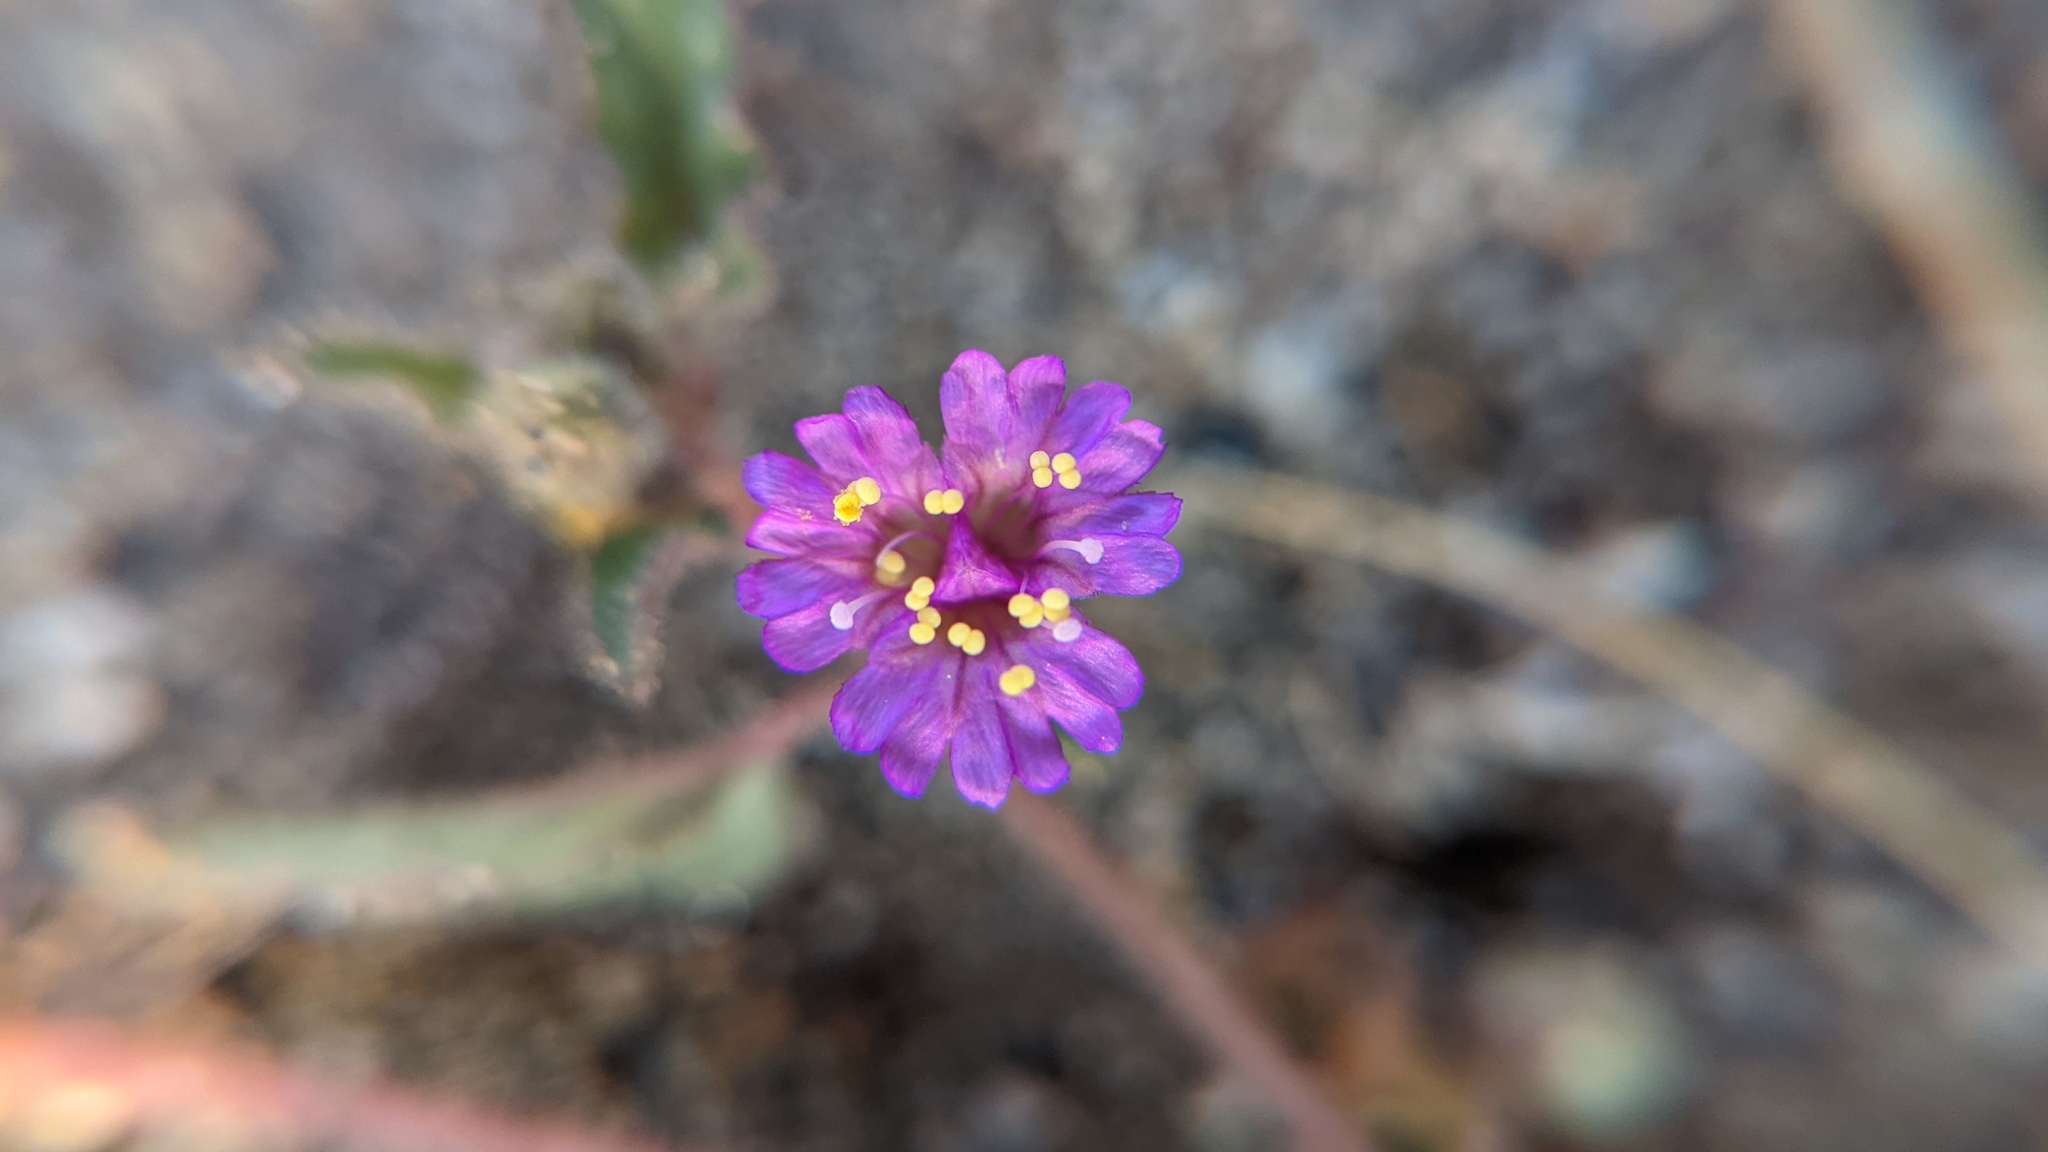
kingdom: Plantae
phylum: Tracheophyta
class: Magnoliopsida
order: Caryophyllales
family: Nyctaginaceae
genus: Allionia
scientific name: Allionia incarnata
